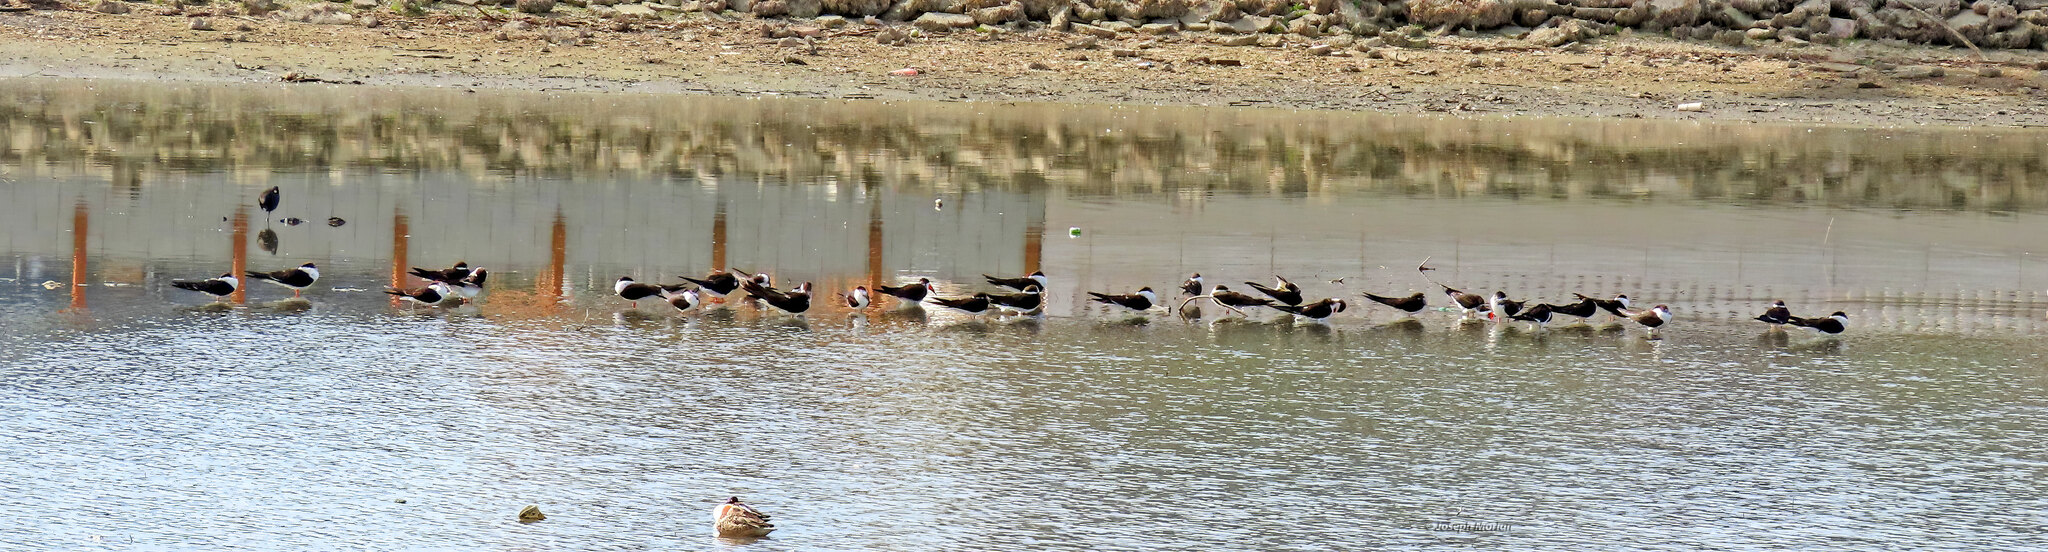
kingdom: Animalia
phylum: Chordata
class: Aves
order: Charadriiformes
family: Laridae
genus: Rynchops
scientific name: Rynchops niger
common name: Black skimmer
